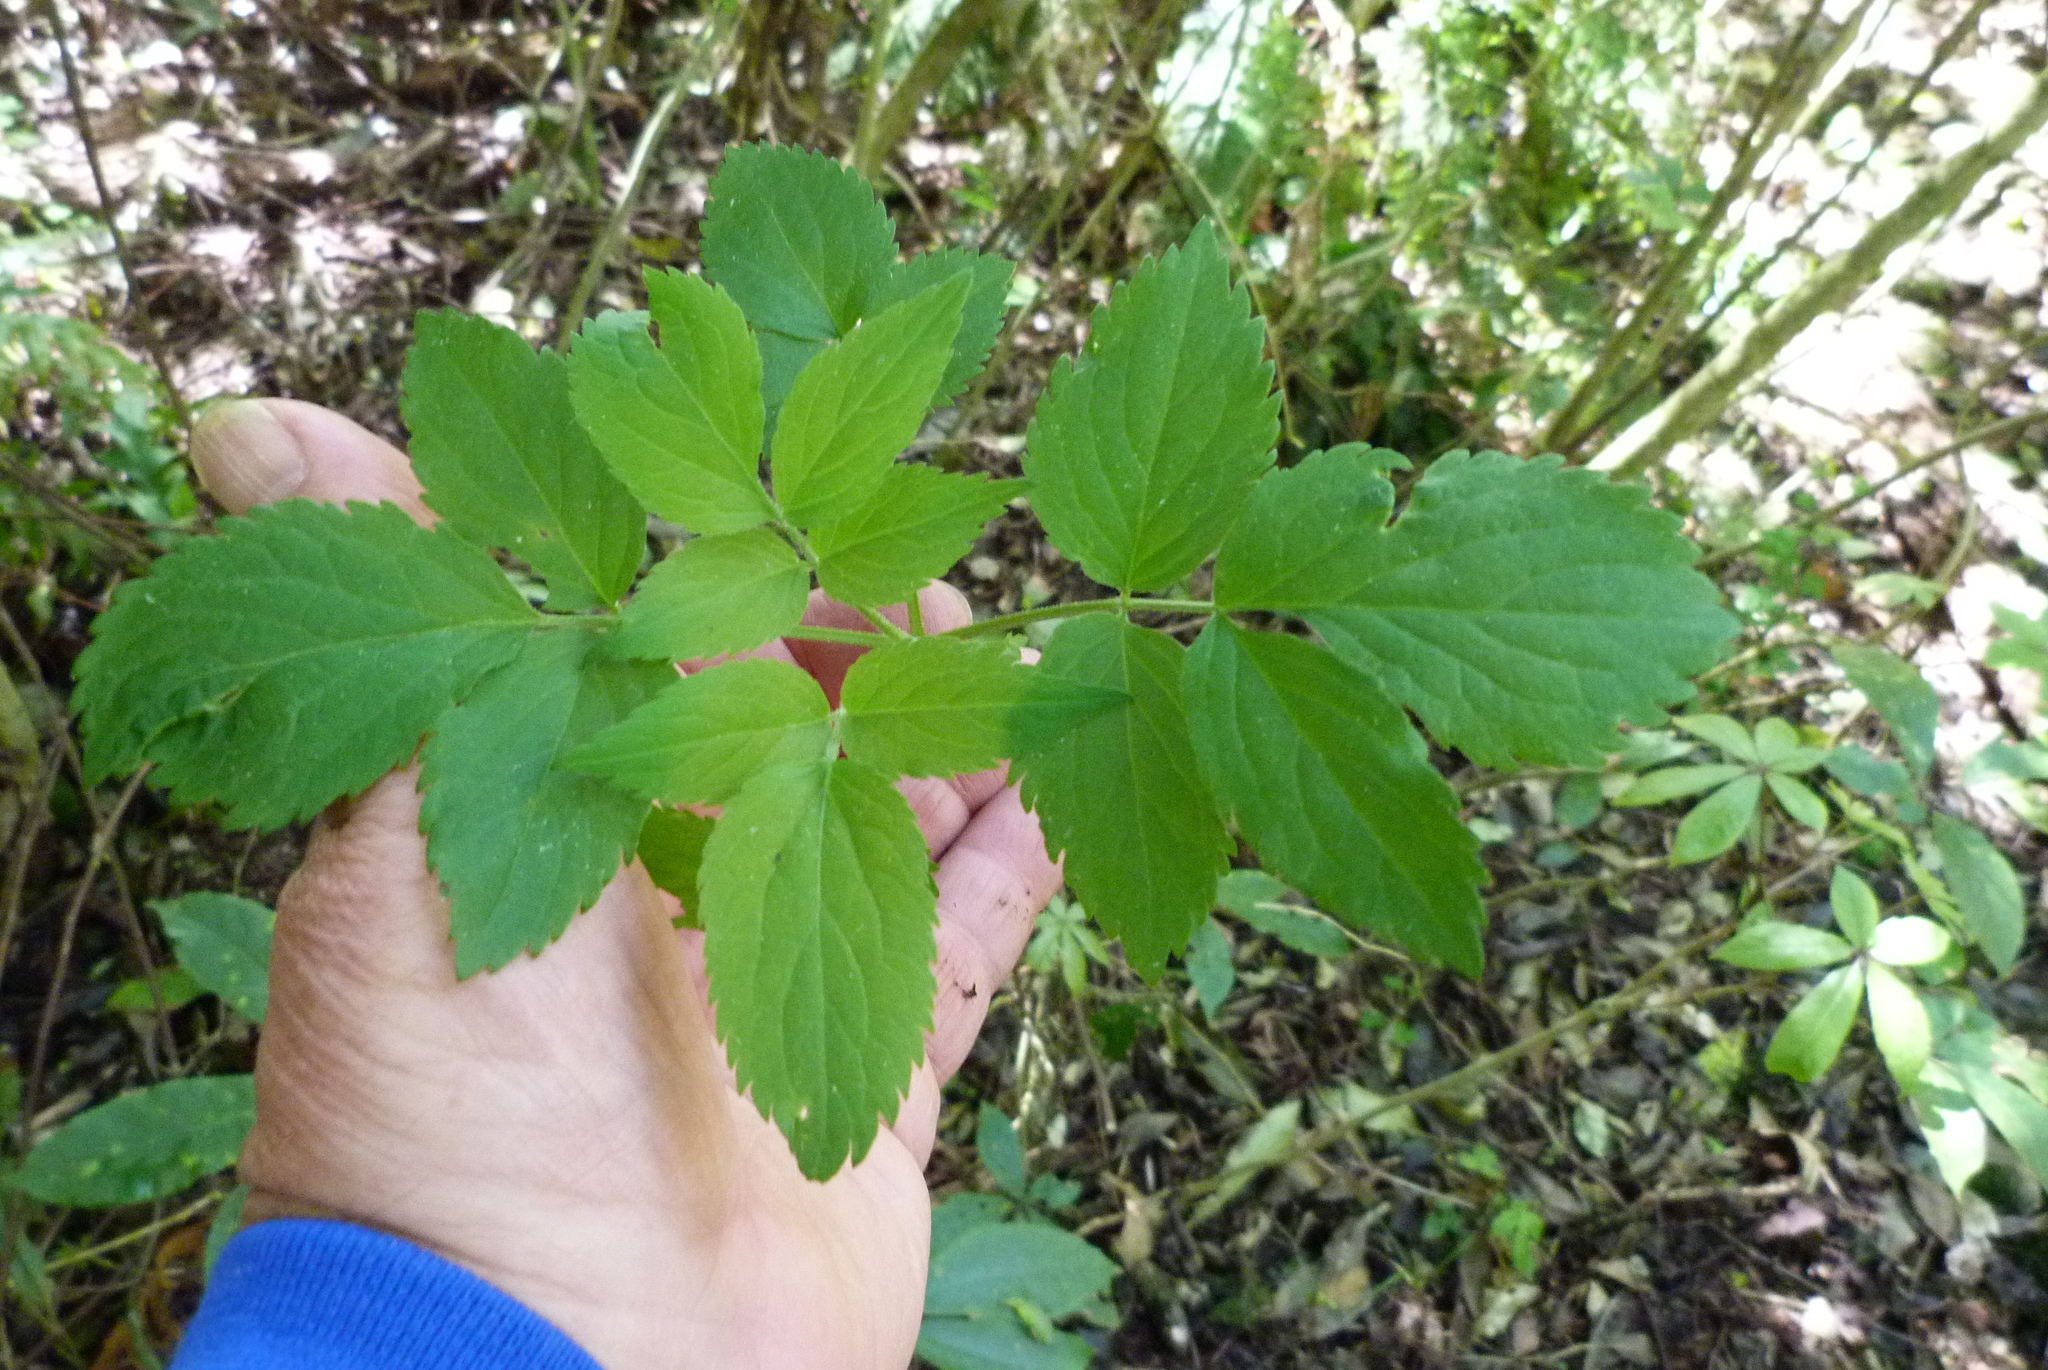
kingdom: Plantae
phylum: Tracheophyta
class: Magnoliopsida
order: Dipsacales
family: Viburnaceae
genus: Sambucus
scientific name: Sambucus nigra
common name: Elder
